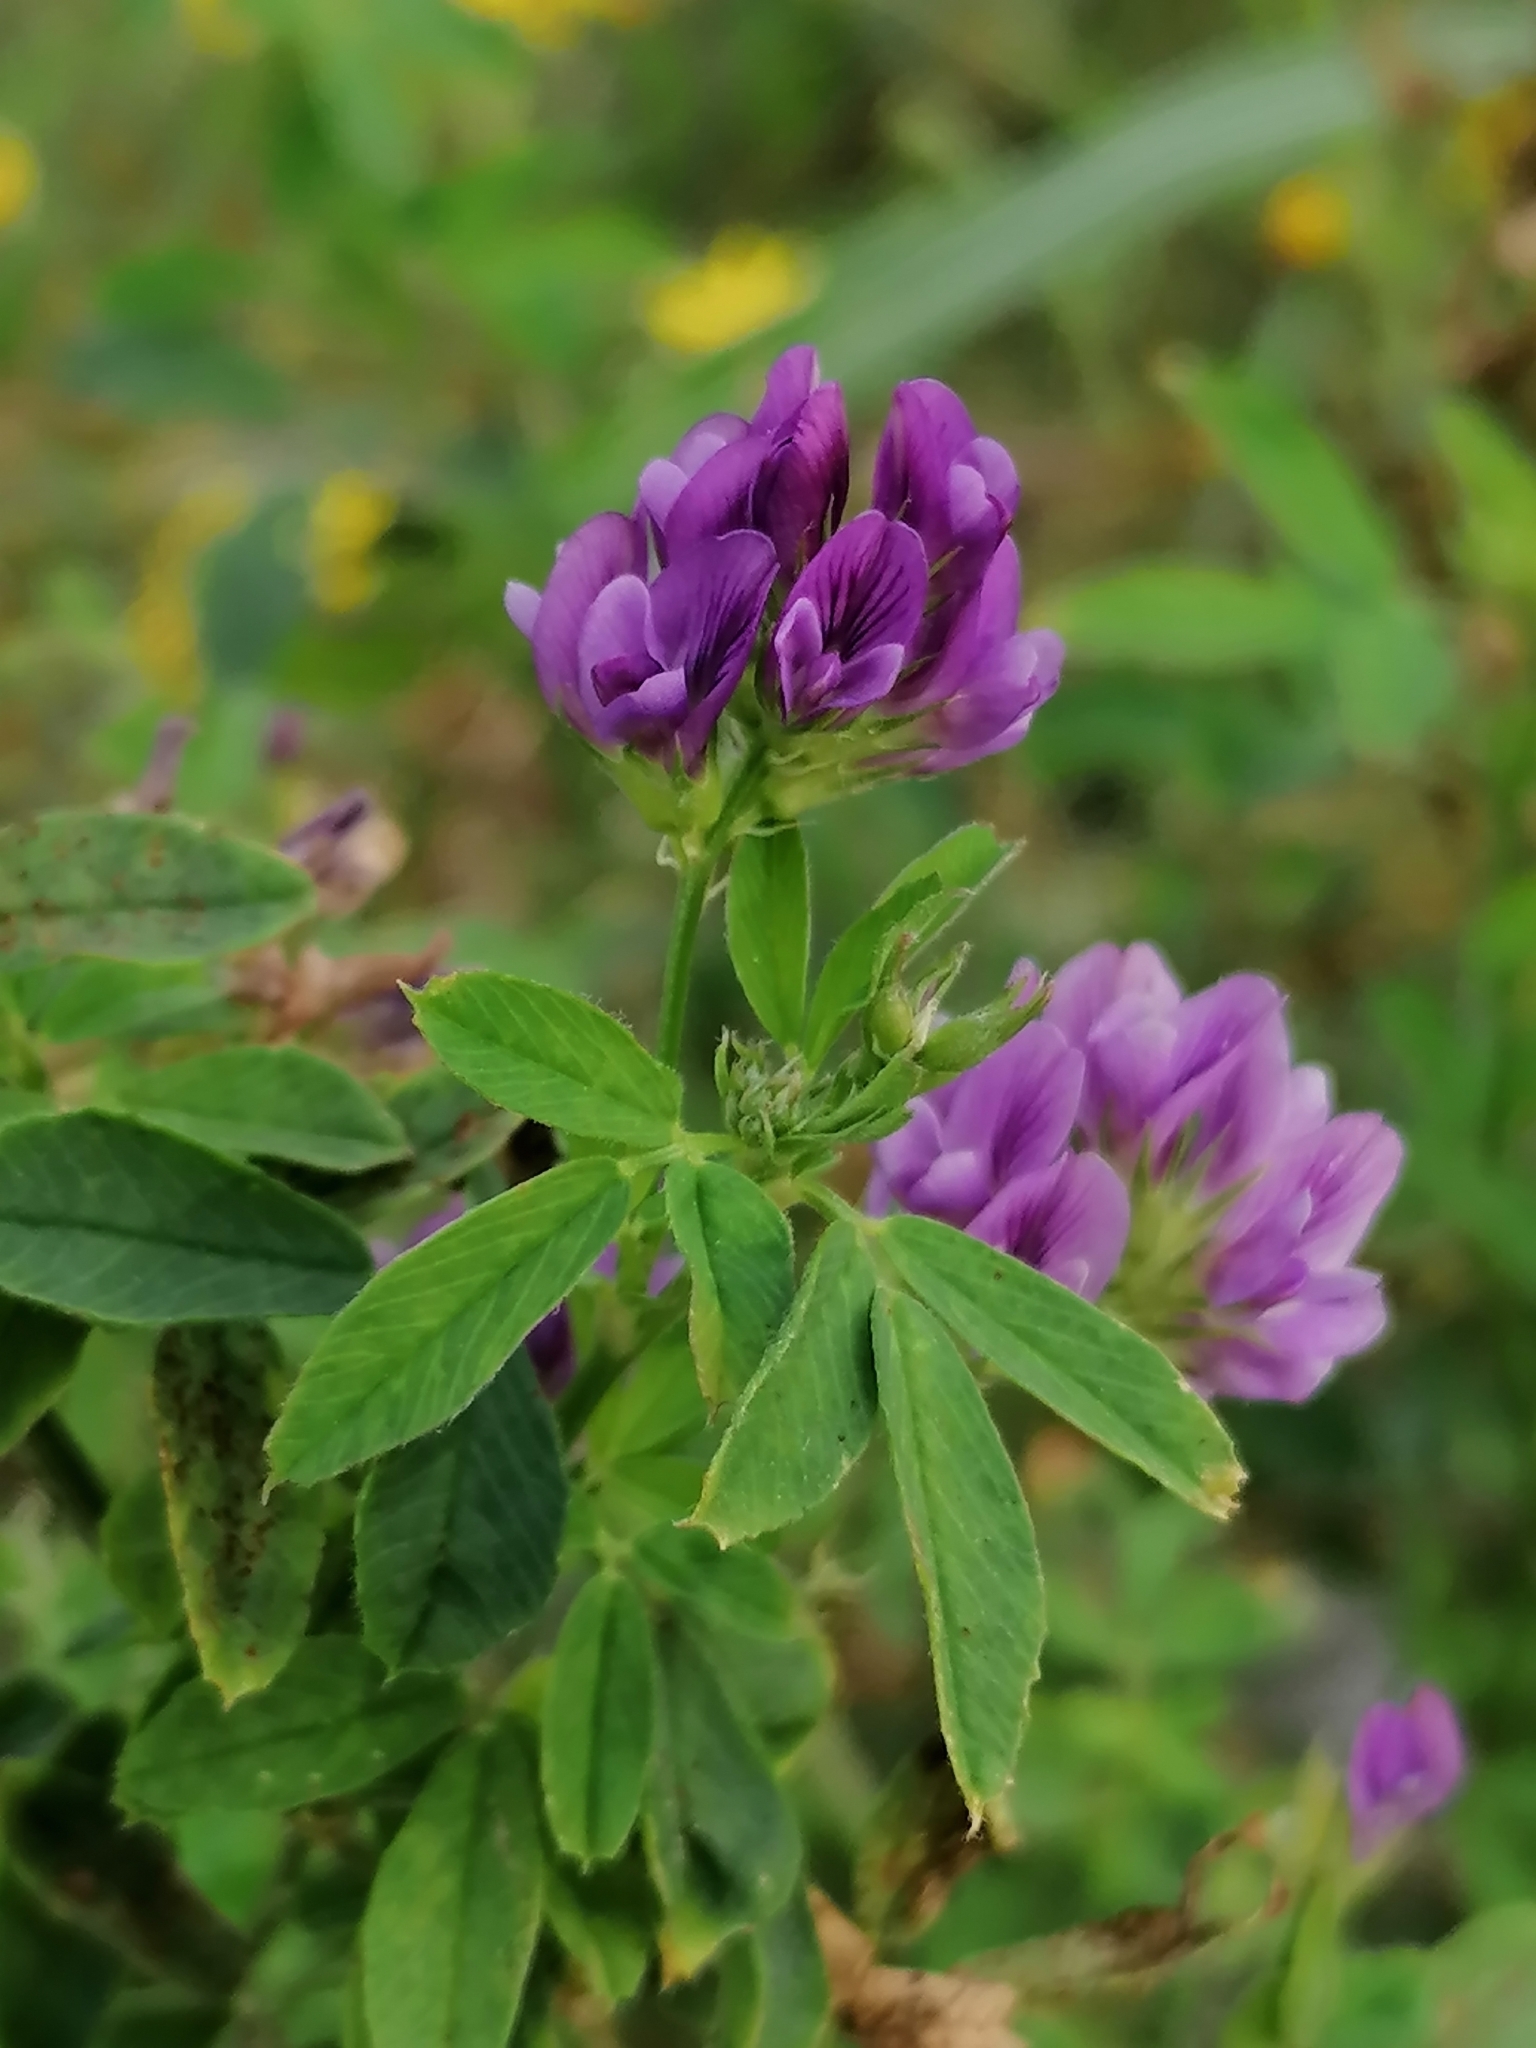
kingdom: Plantae
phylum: Tracheophyta
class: Magnoliopsida
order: Fabales
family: Fabaceae
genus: Medicago
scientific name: Medicago sativa
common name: Alfalfa
